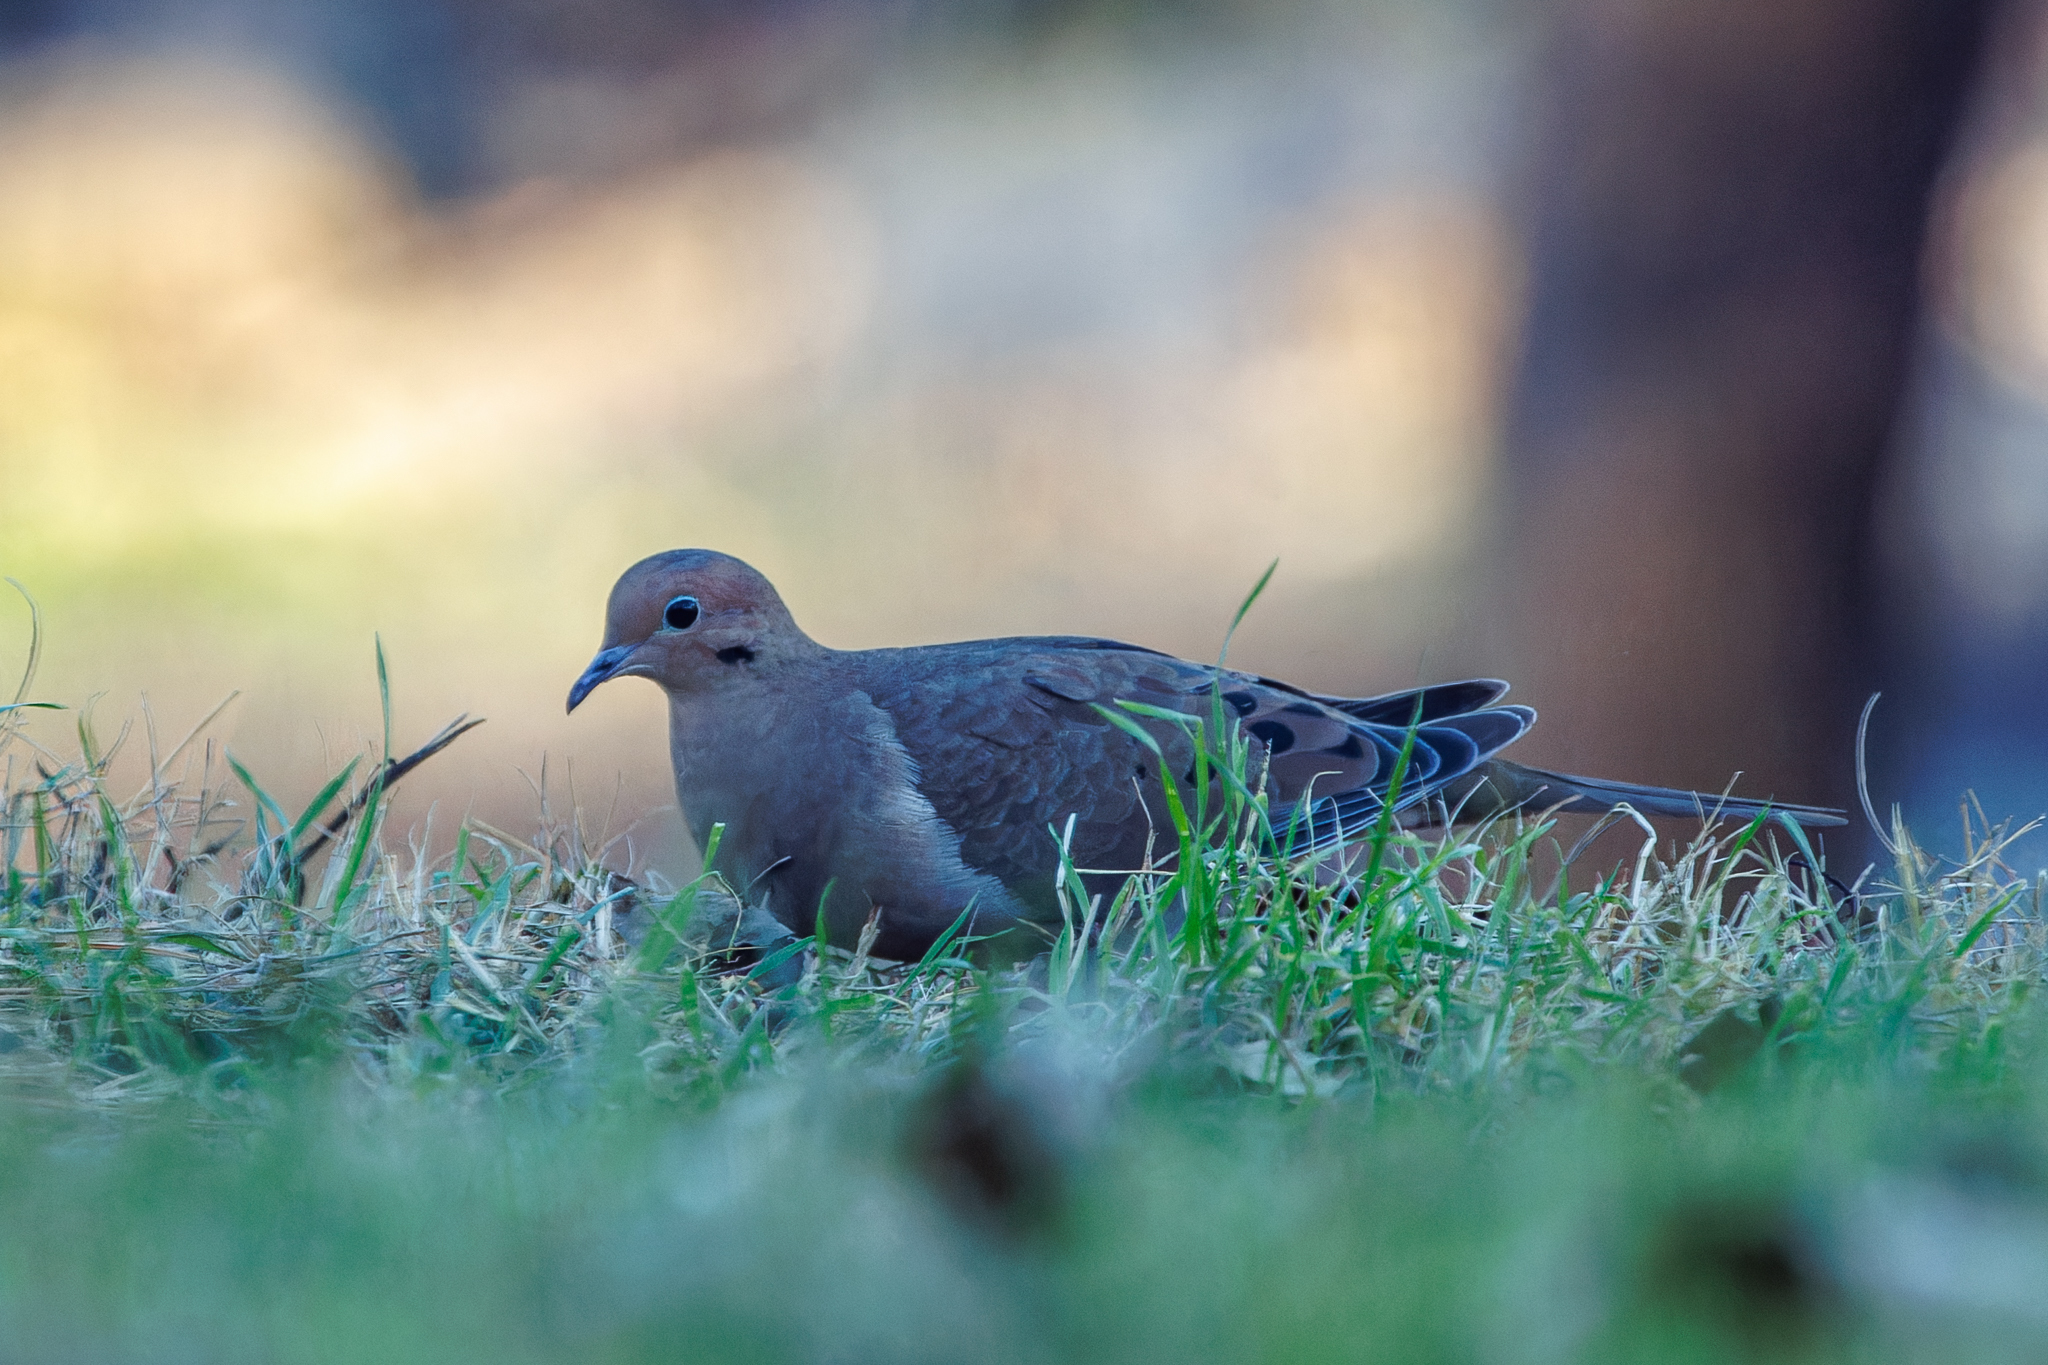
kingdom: Animalia
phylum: Chordata
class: Aves
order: Columbiformes
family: Columbidae
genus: Zenaida
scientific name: Zenaida macroura
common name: Mourning dove
